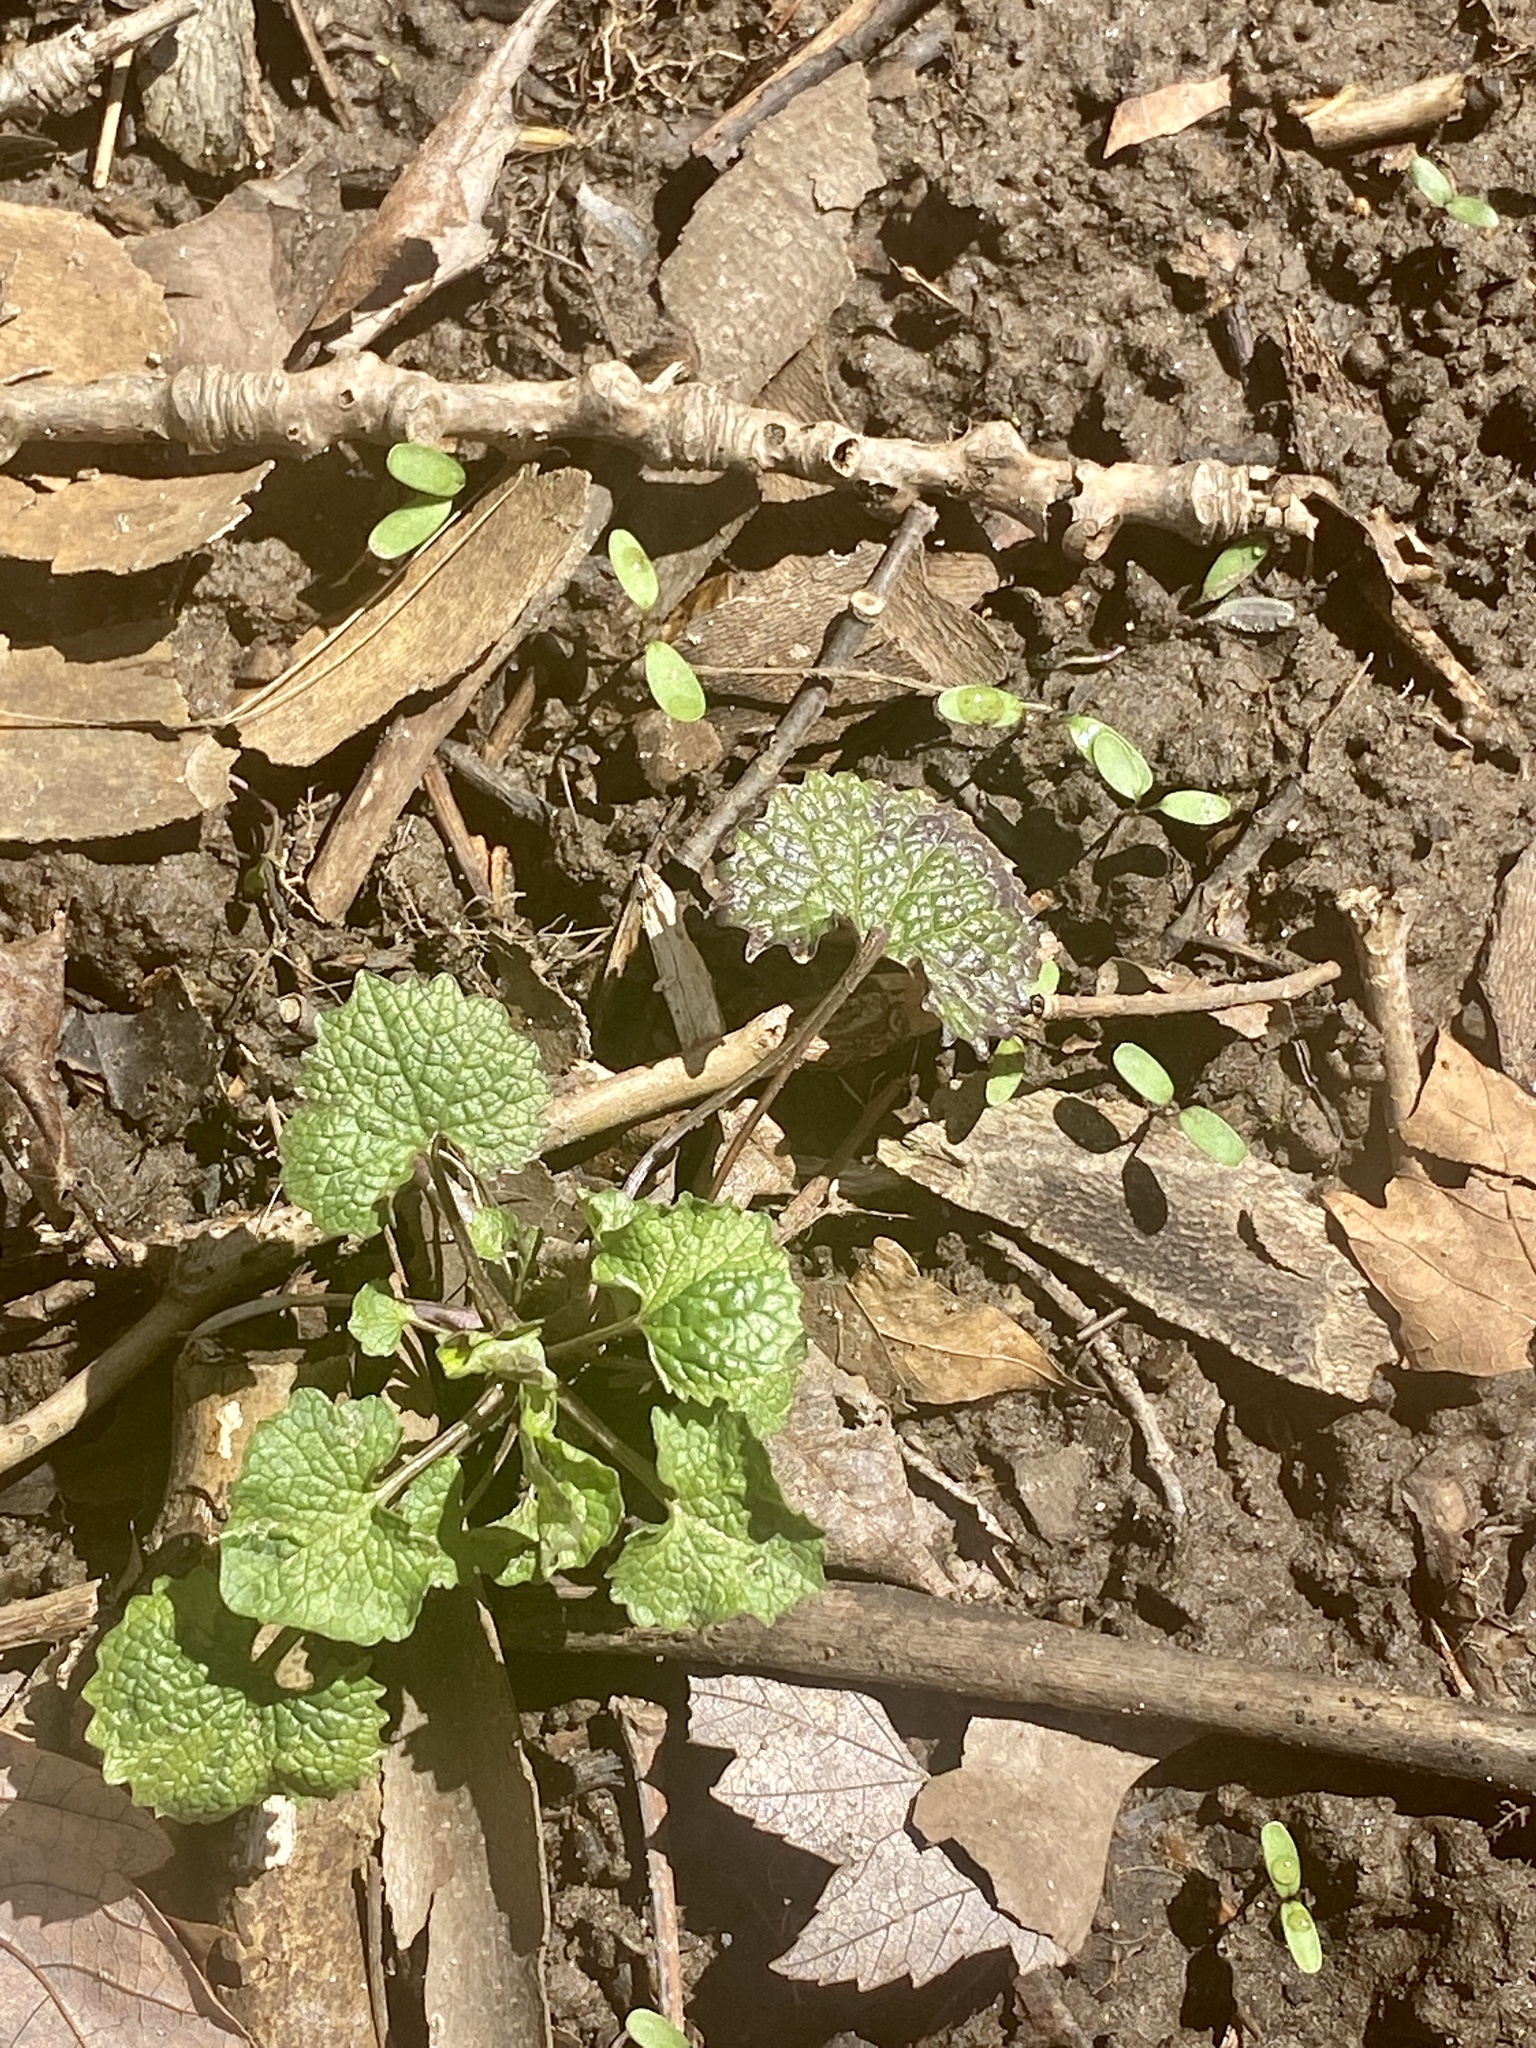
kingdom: Plantae
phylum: Tracheophyta
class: Magnoliopsida
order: Brassicales
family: Brassicaceae
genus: Alliaria
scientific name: Alliaria petiolata
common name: Garlic mustard
